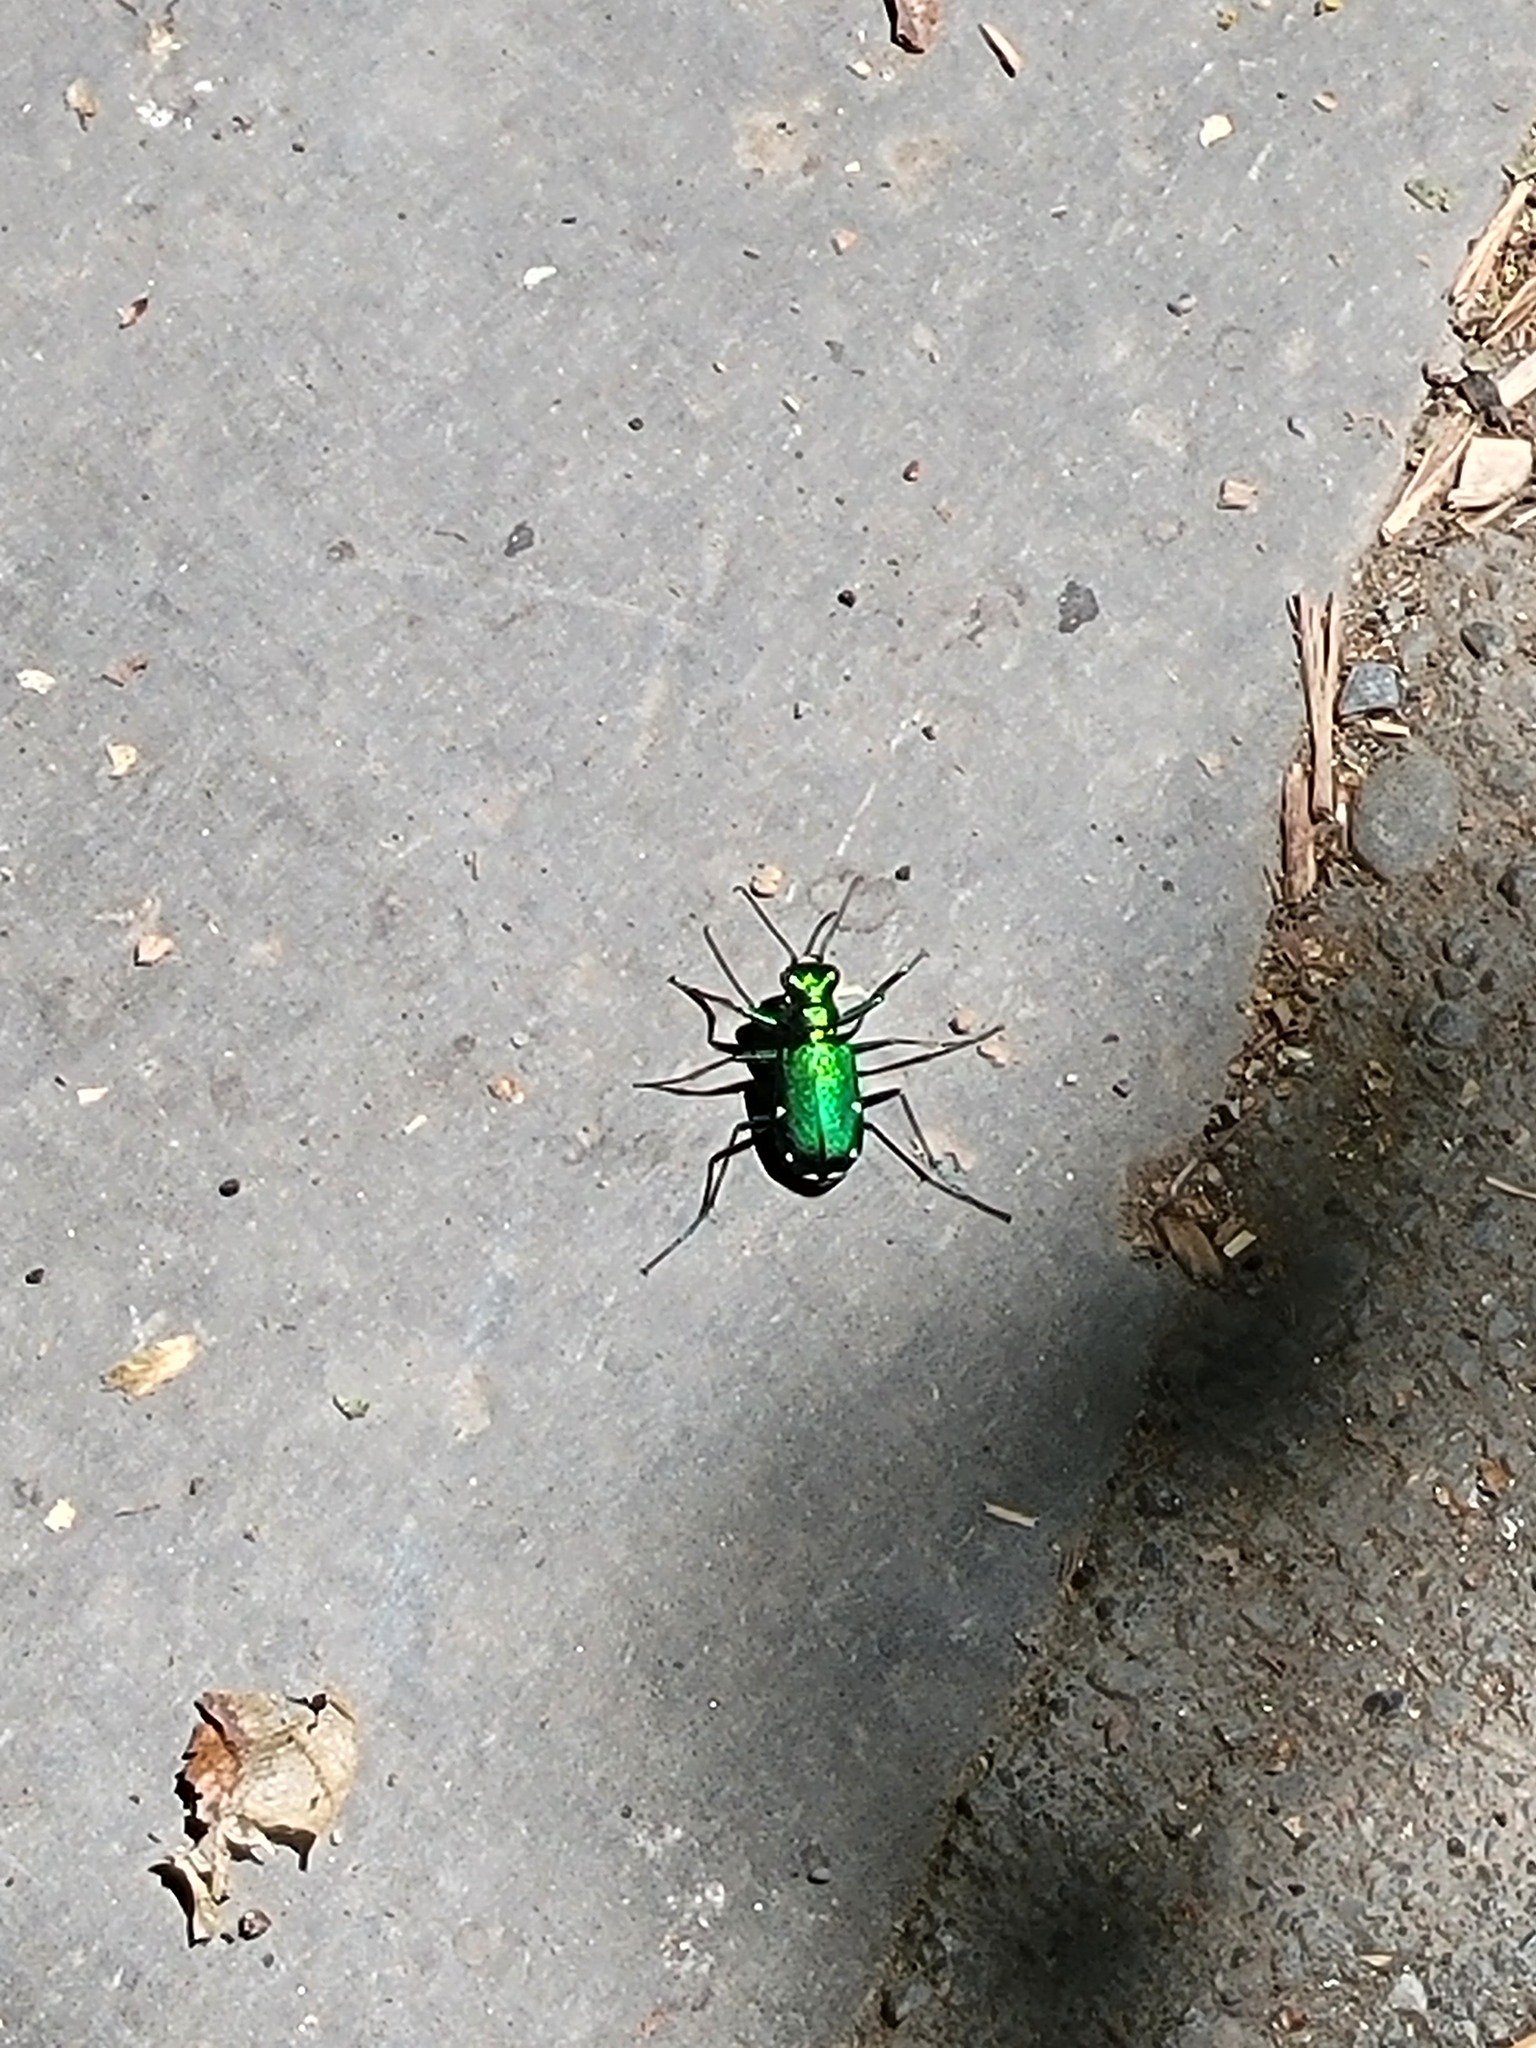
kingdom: Animalia
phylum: Arthropoda
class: Insecta
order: Coleoptera
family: Carabidae
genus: Cicindela
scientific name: Cicindela sexguttata
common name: Six-spotted tiger beetle
